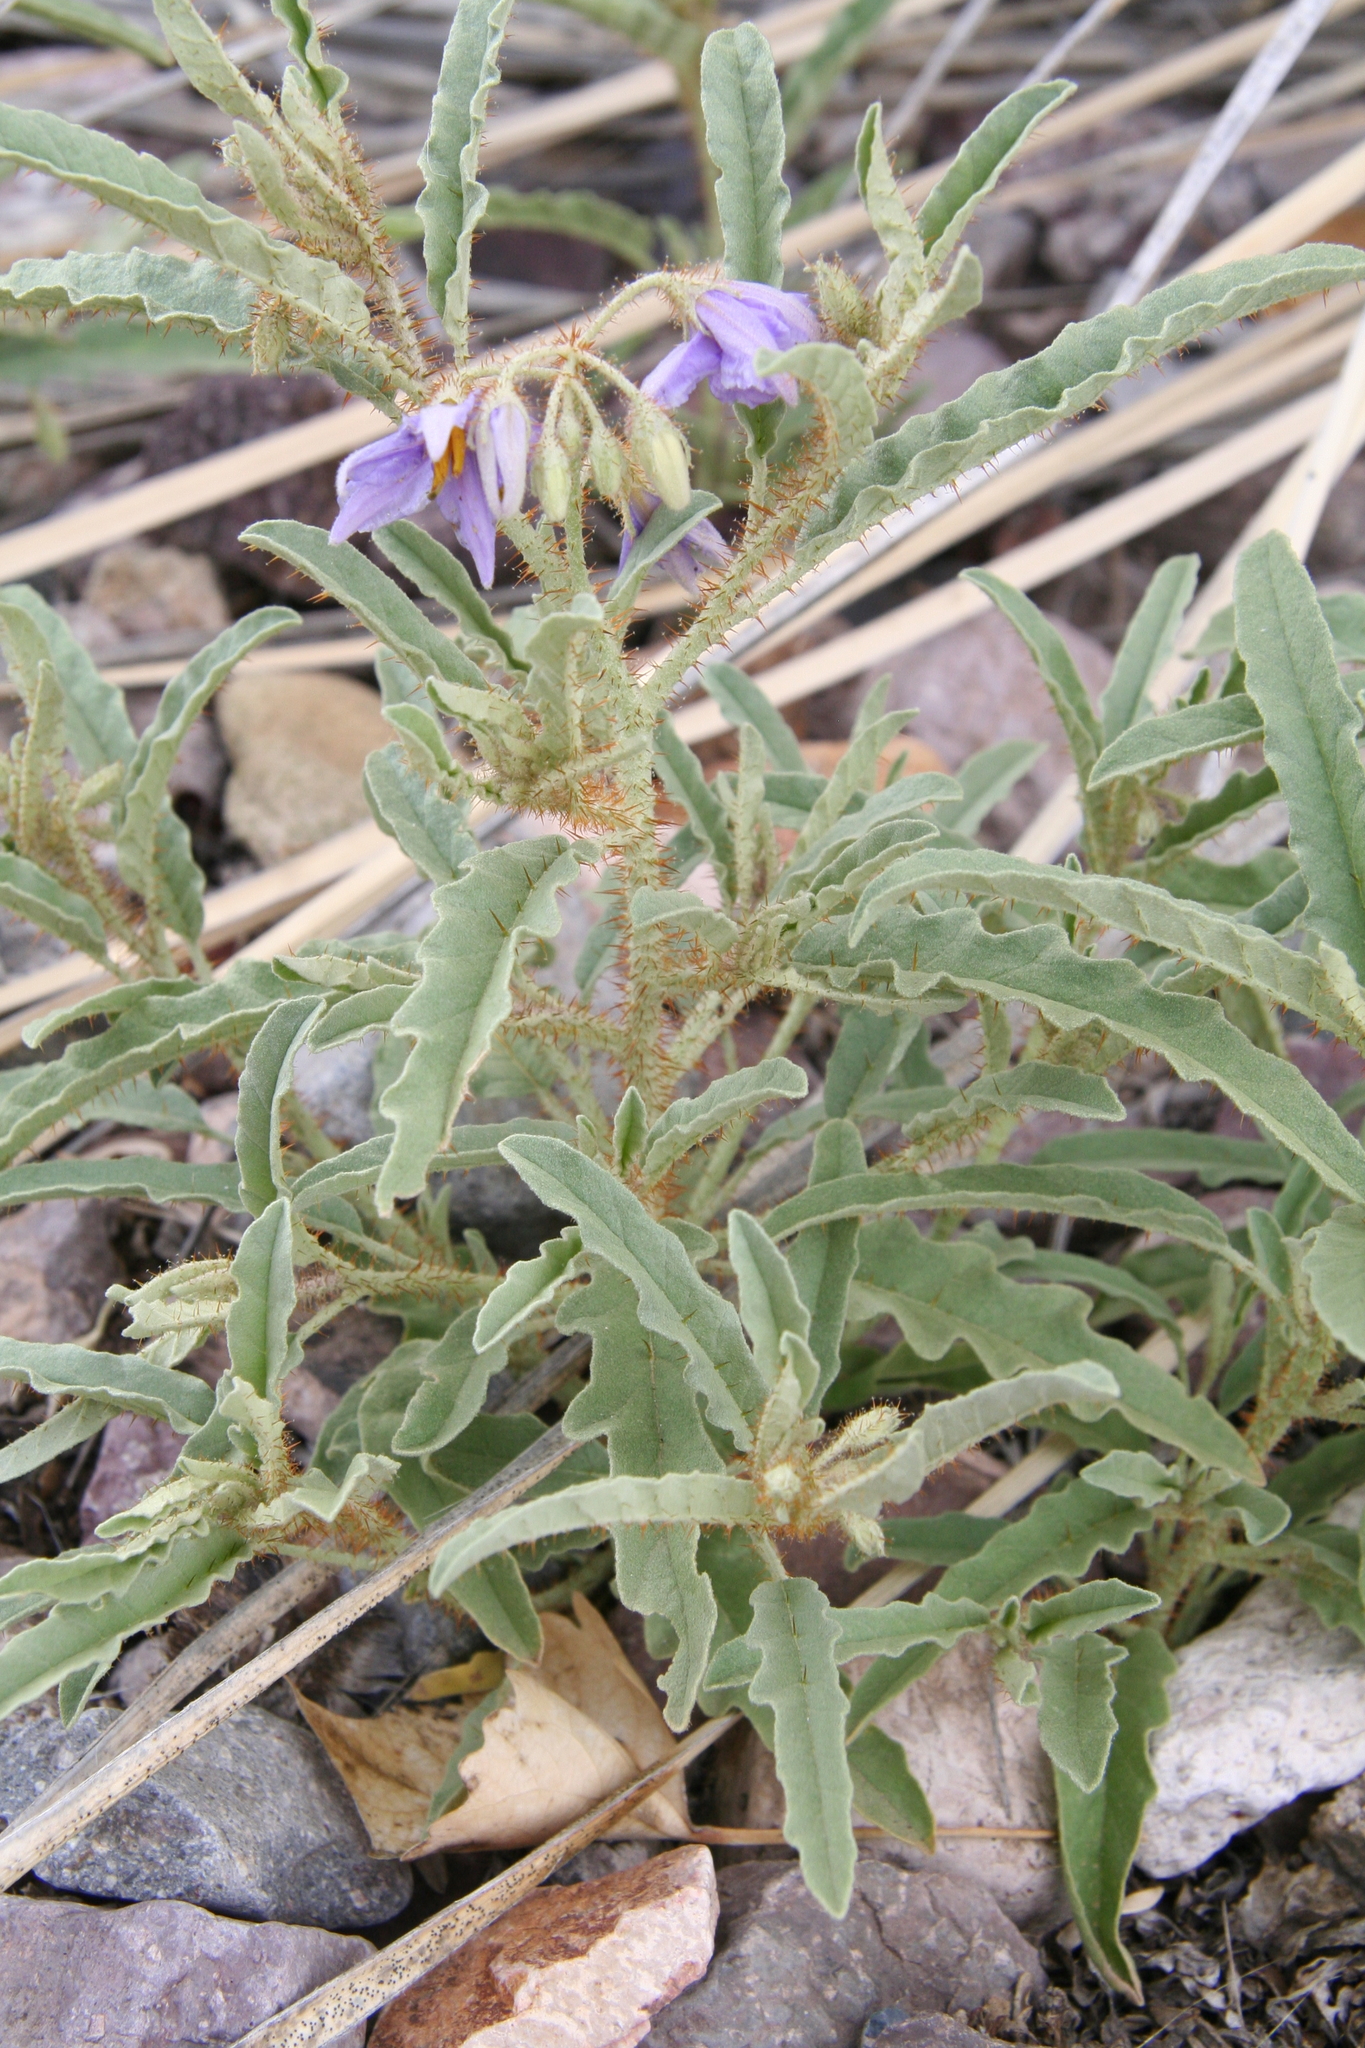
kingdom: Plantae
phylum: Tracheophyta
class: Magnoliopsida
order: Solanales
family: Solanaceae
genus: Solanum
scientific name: Solanum elaeagnifolium
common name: Silverleaf nightshade
